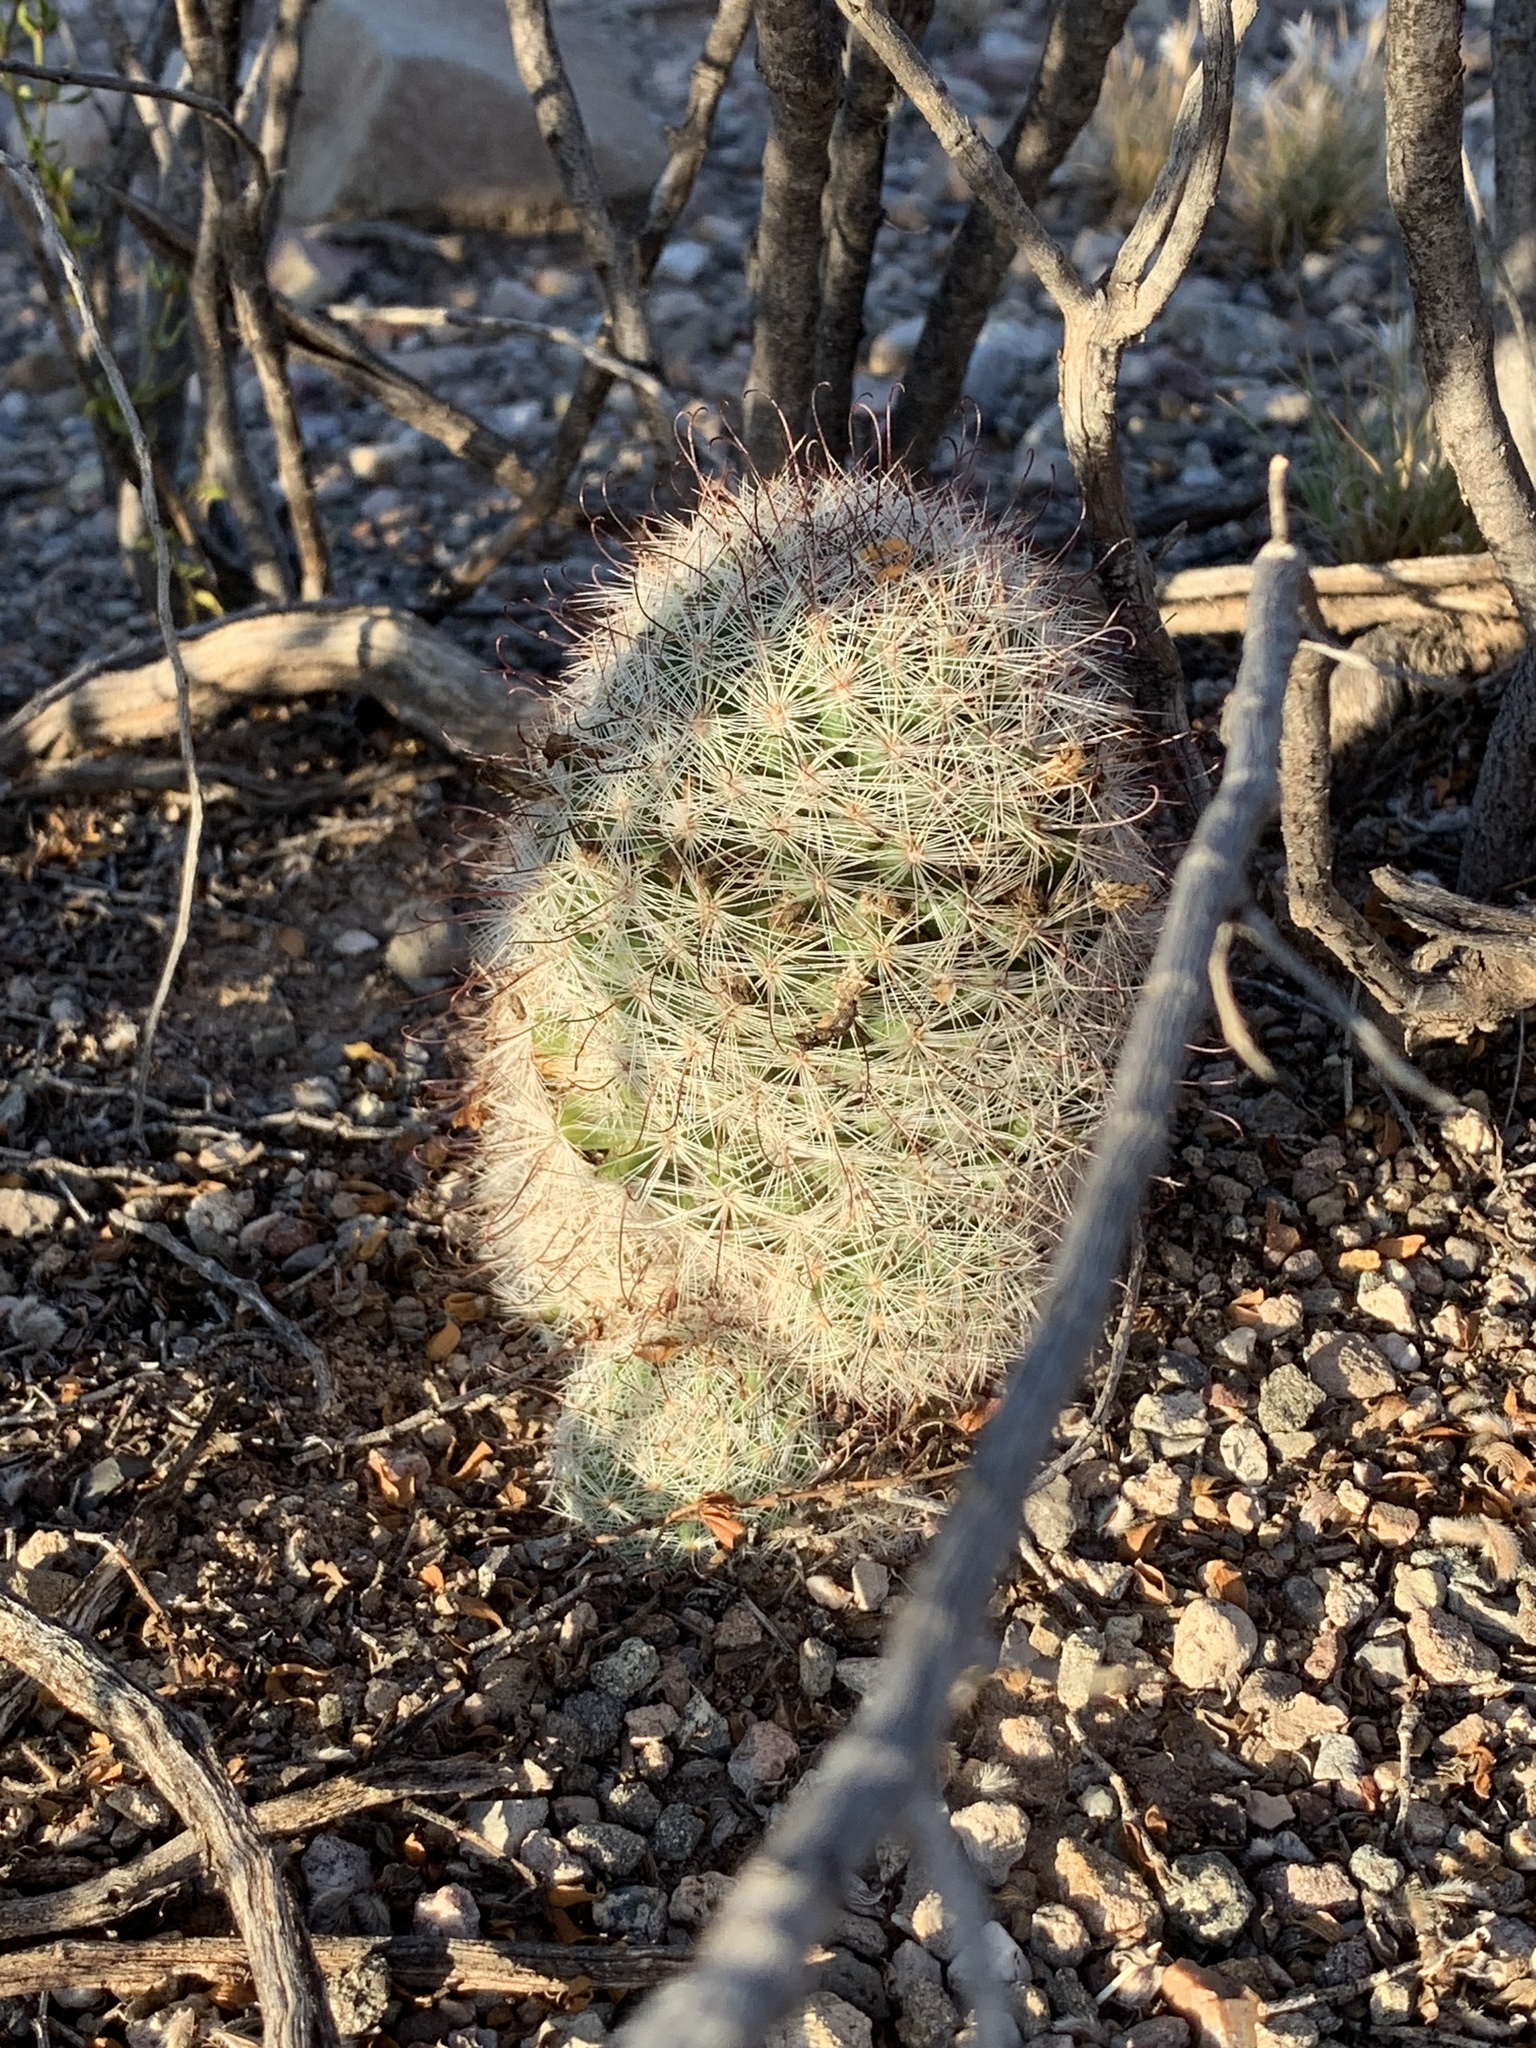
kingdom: Plantae
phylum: Tracheophyta
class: Magnoliopsida
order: Caryophyllales
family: Cactaceae
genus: Cochemiea
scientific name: Cochemiea grahamii
